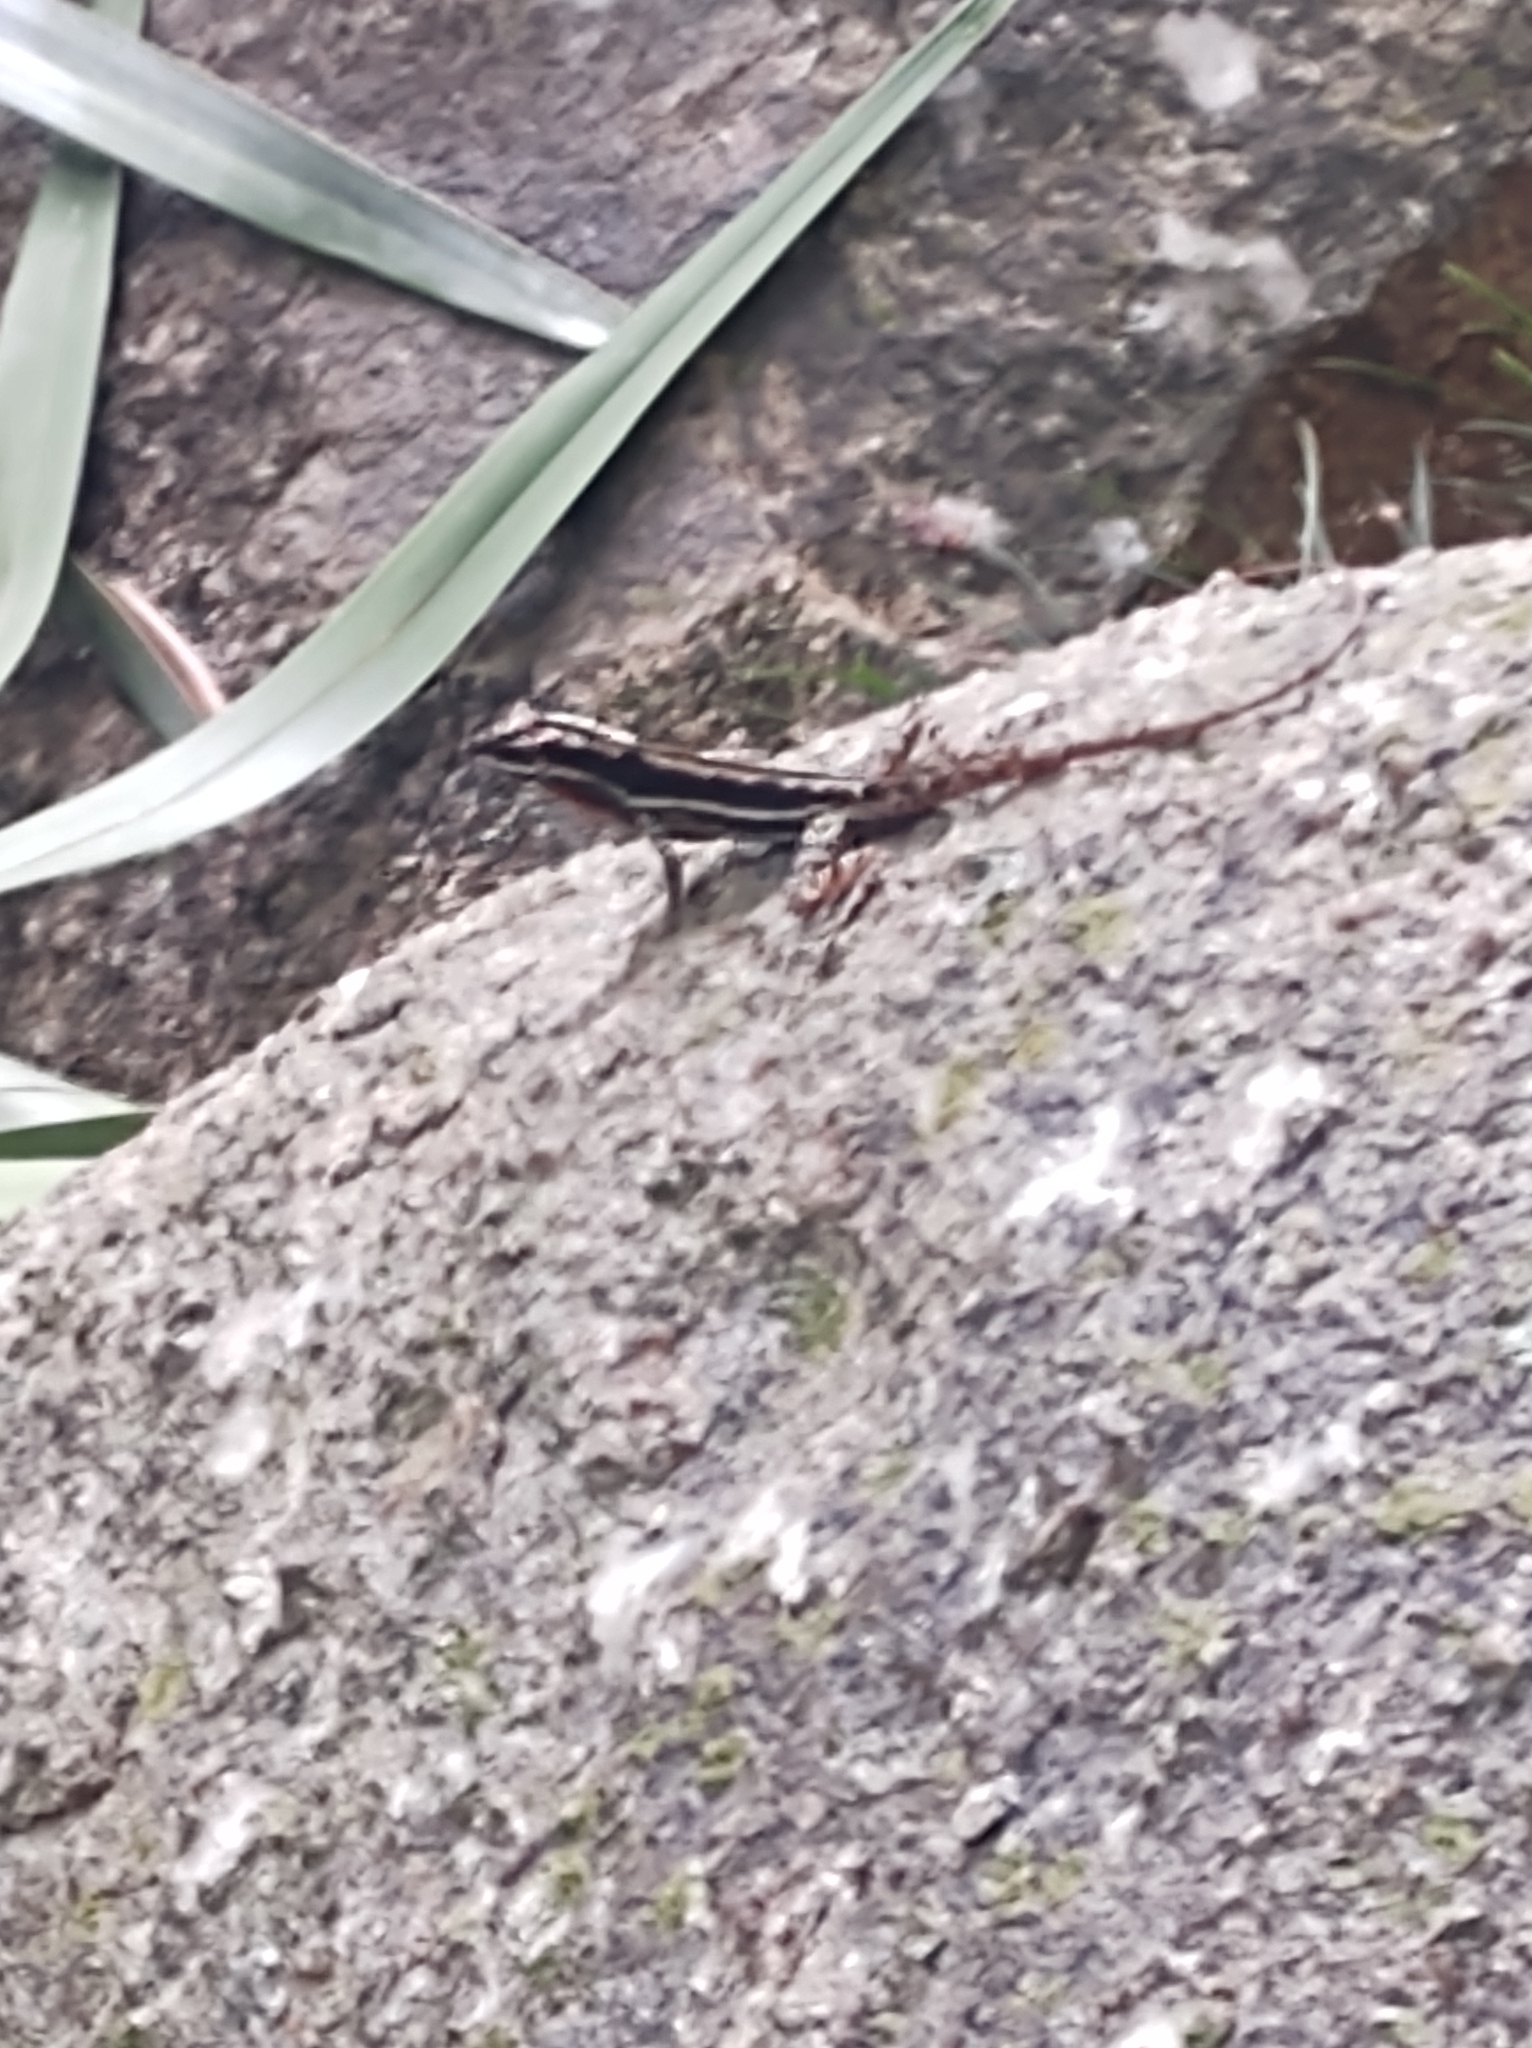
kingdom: Animalia
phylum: Chordata
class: Squamata
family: Dactyloidae
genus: Anolis
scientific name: Anolis taylori
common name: Taylor's anole
